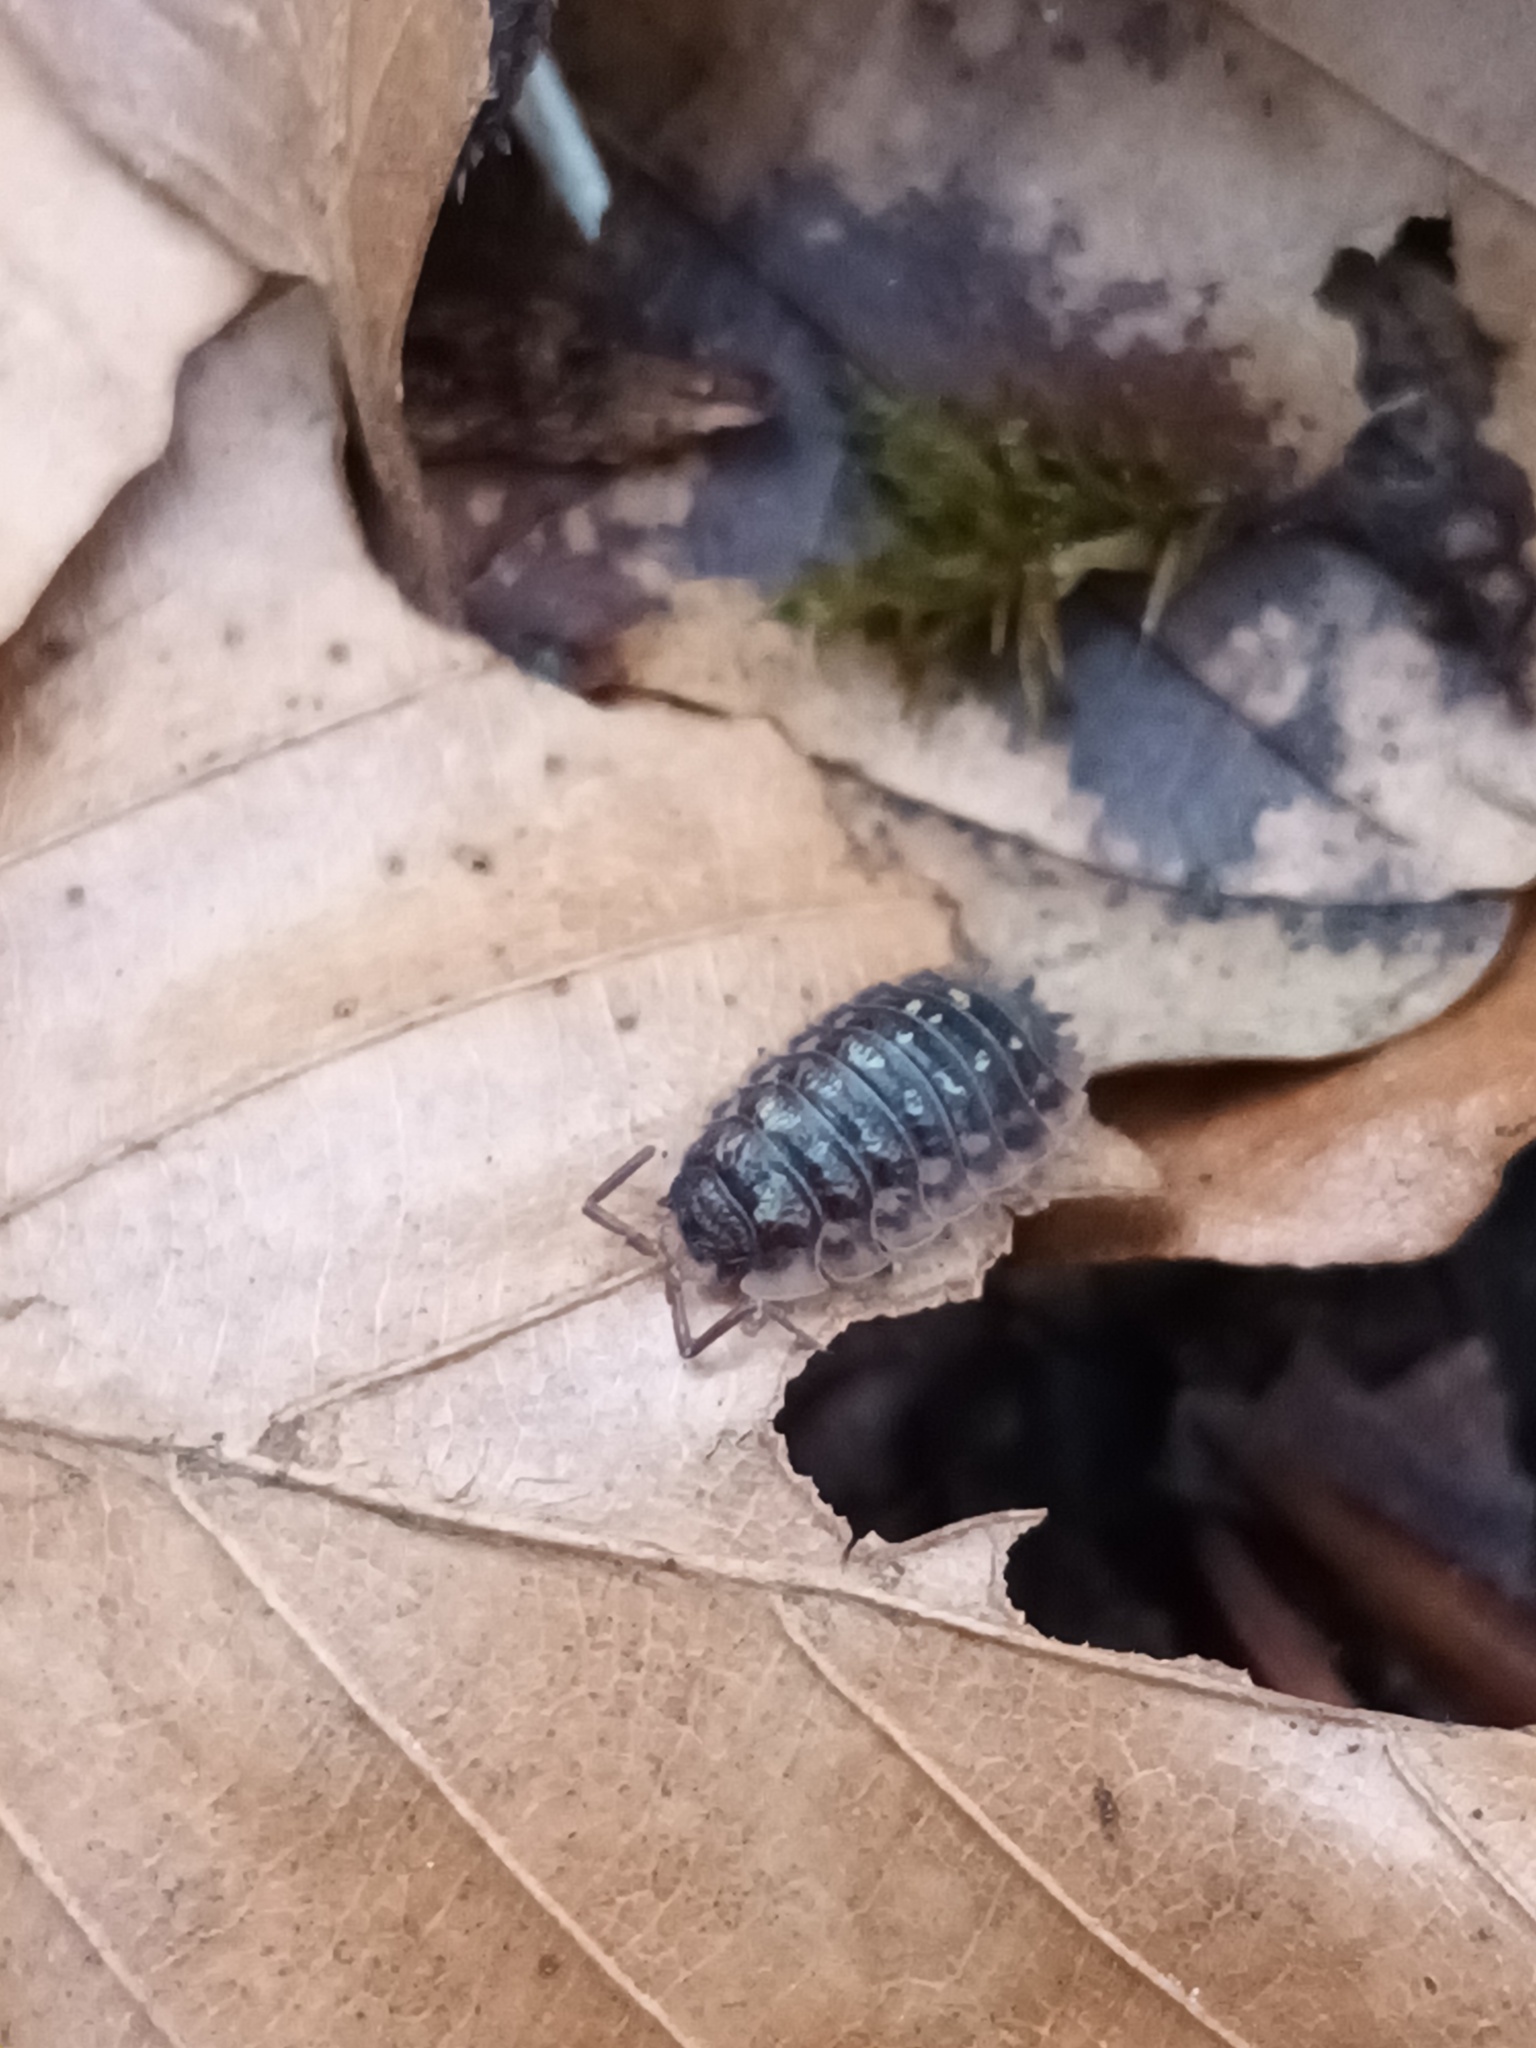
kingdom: Animalia
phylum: Arthropoda
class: Malacostraca
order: Isopoda
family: Oniscidae
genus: Oniscus
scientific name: Oniscus asellus
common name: Common shiny woodlouse
